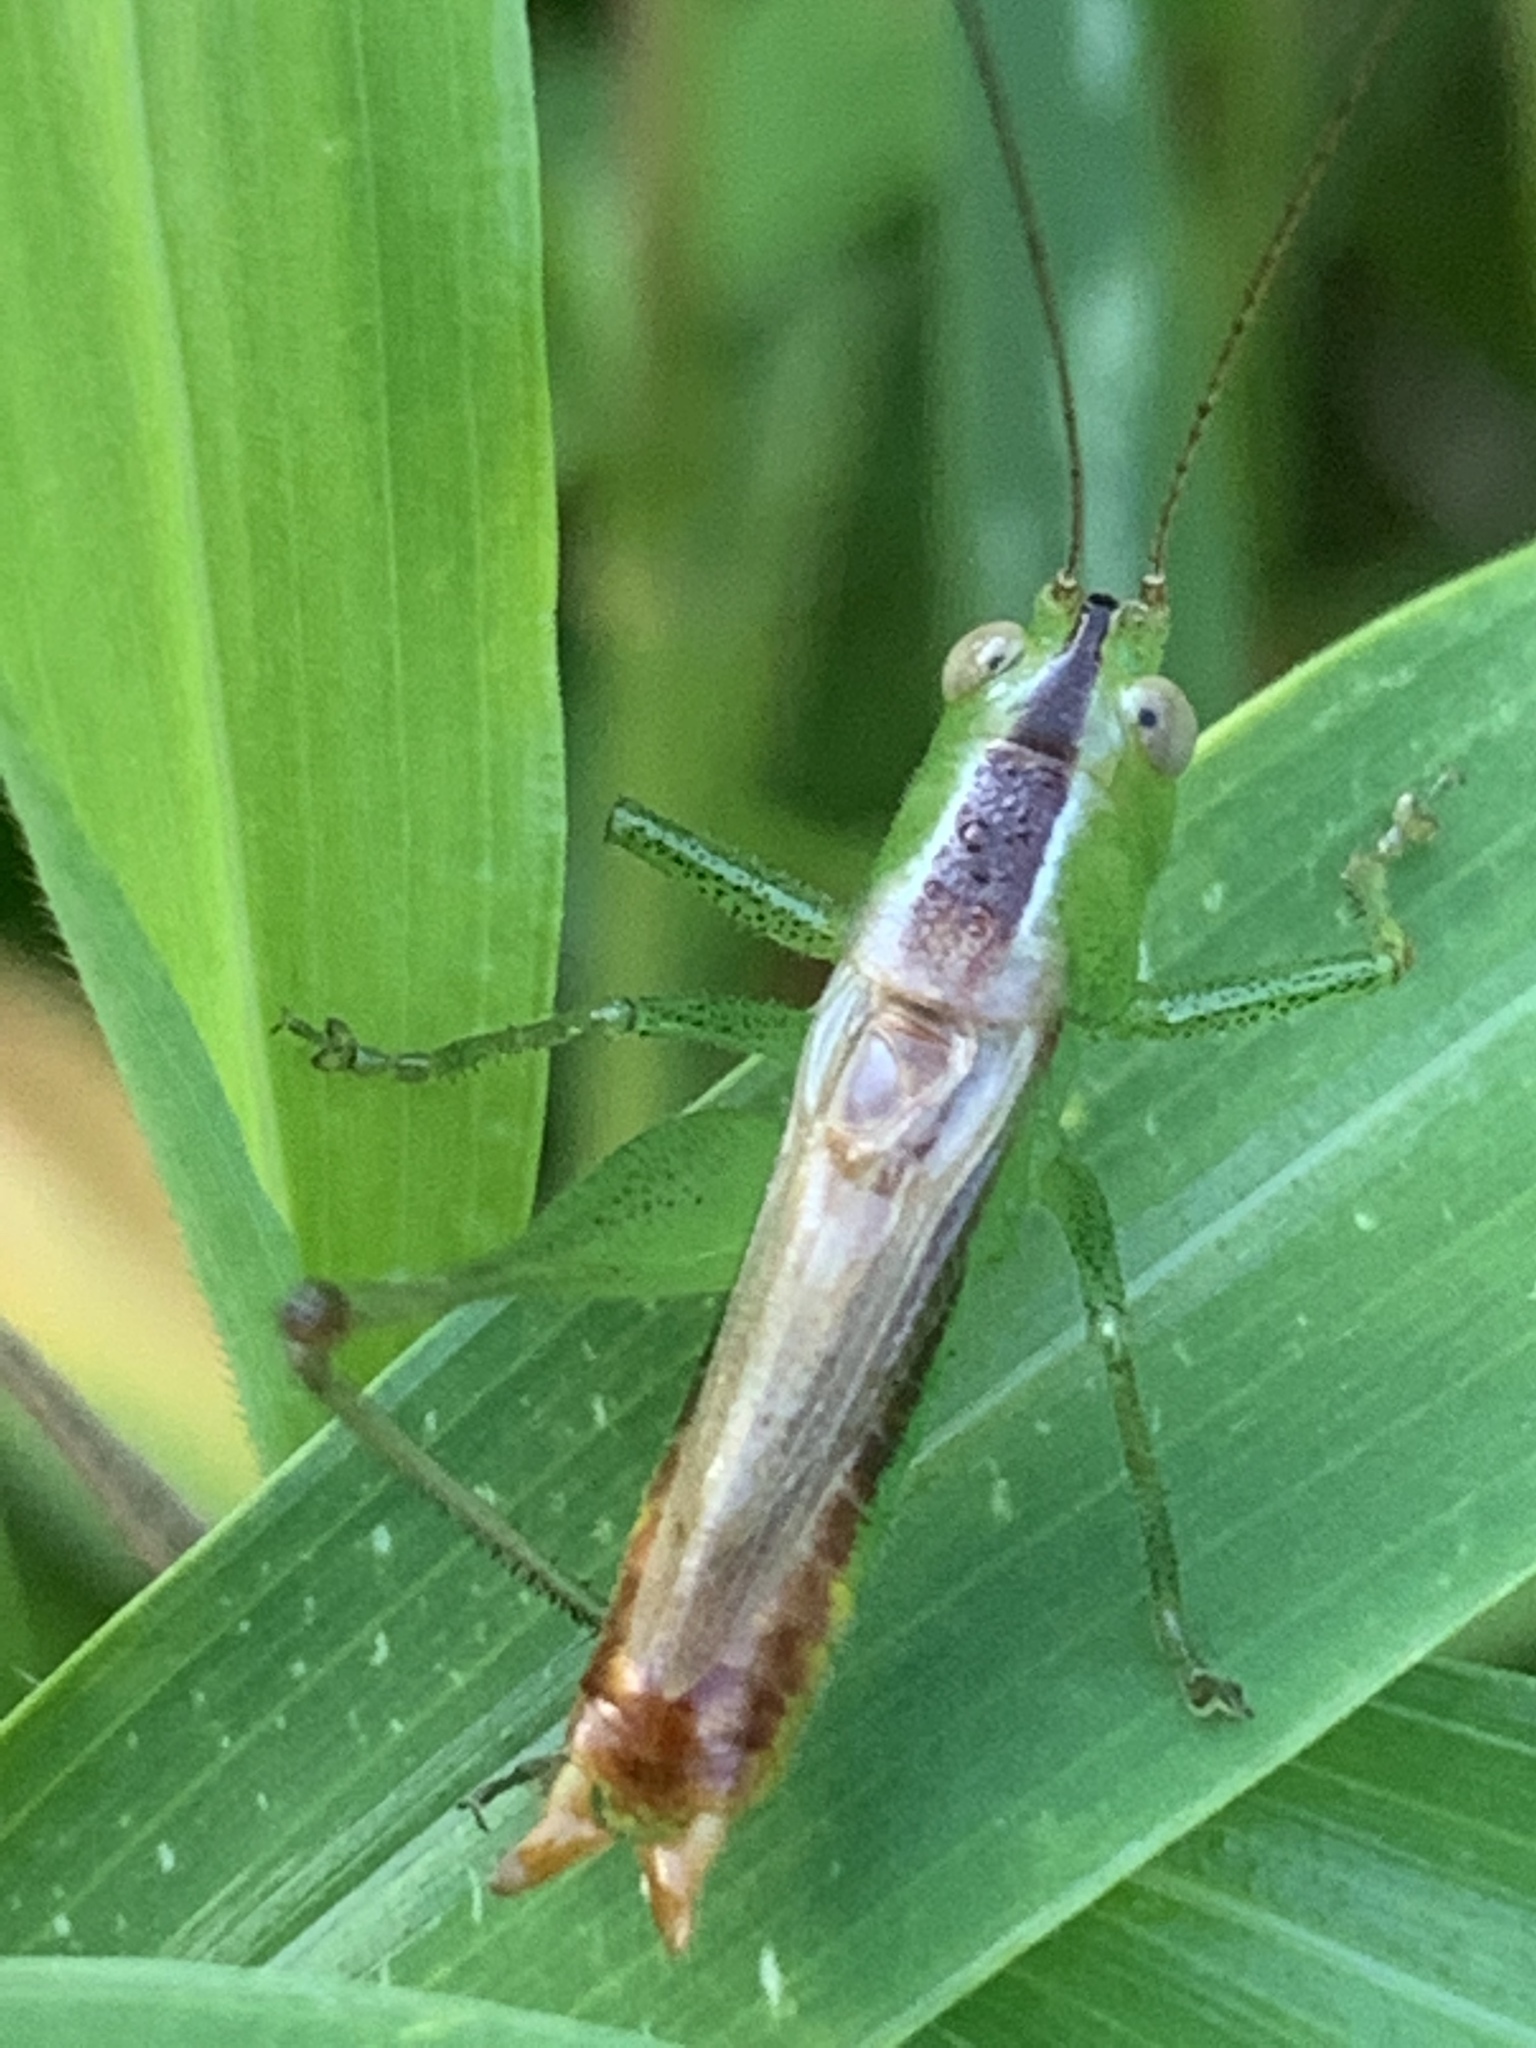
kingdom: Animalia
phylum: Arthropoda
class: Insecta
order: Orthoptera
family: Tettigoniidae
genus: Conocephalus
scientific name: Conocephalus brevipennis
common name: Short-winged meadow katydid
